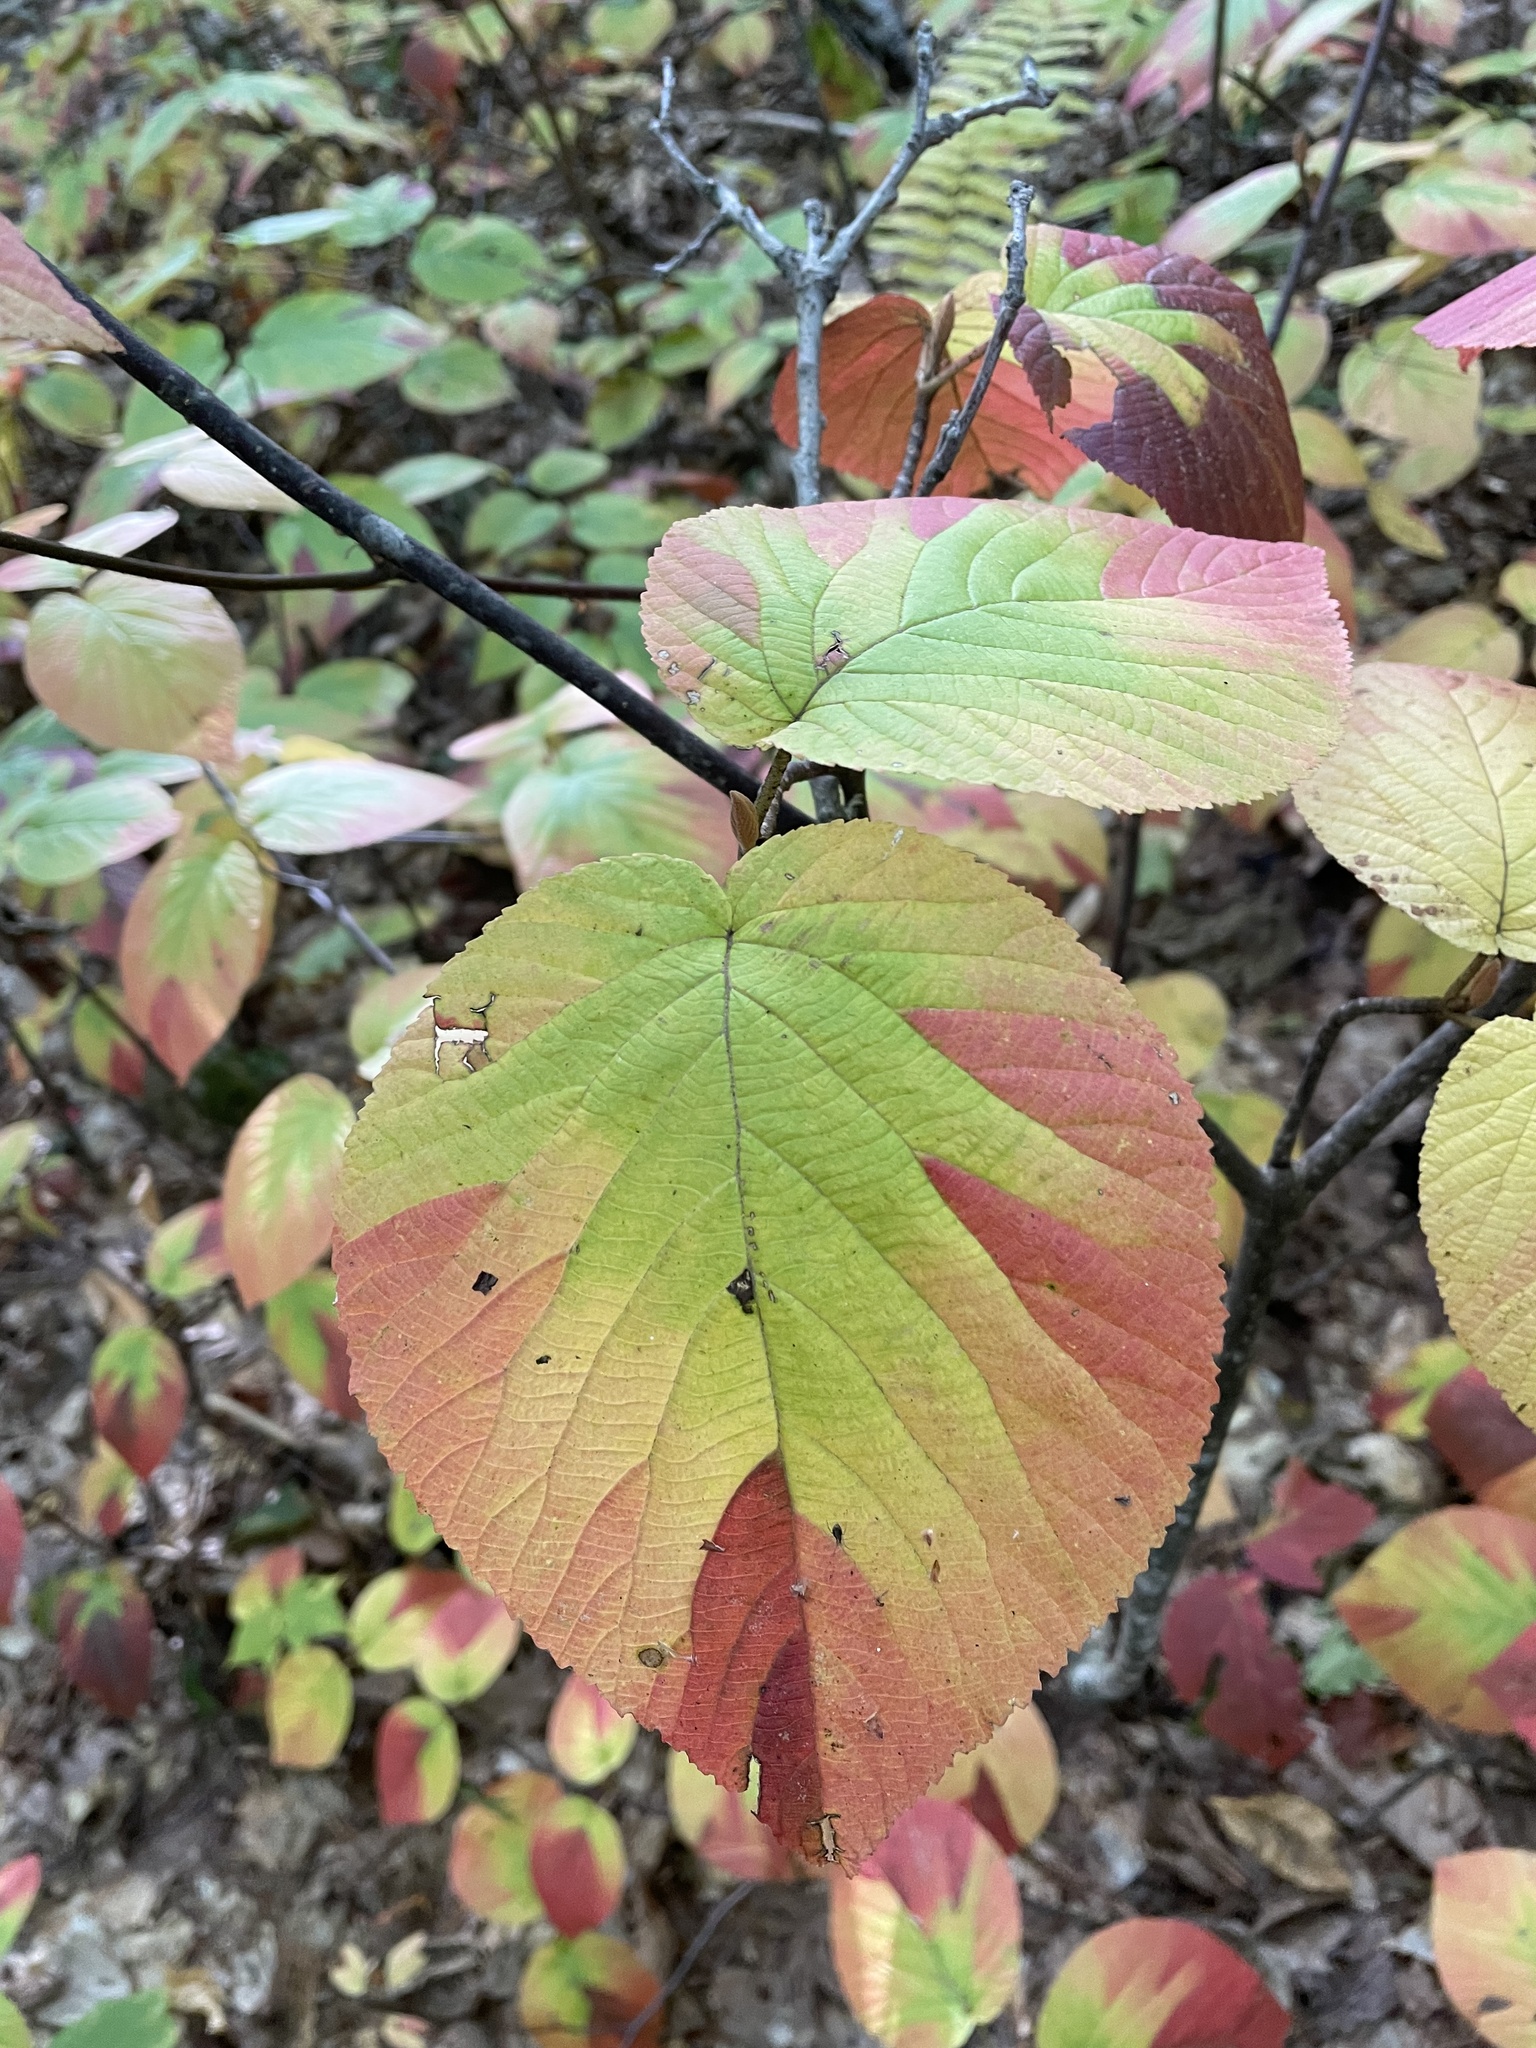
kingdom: Plantae
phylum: Tracheophyta
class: Magnoliopsida
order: Dipsacales
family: Viburnaceae
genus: Viburnum
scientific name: Viburnum lantanoides
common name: Hobblebush
